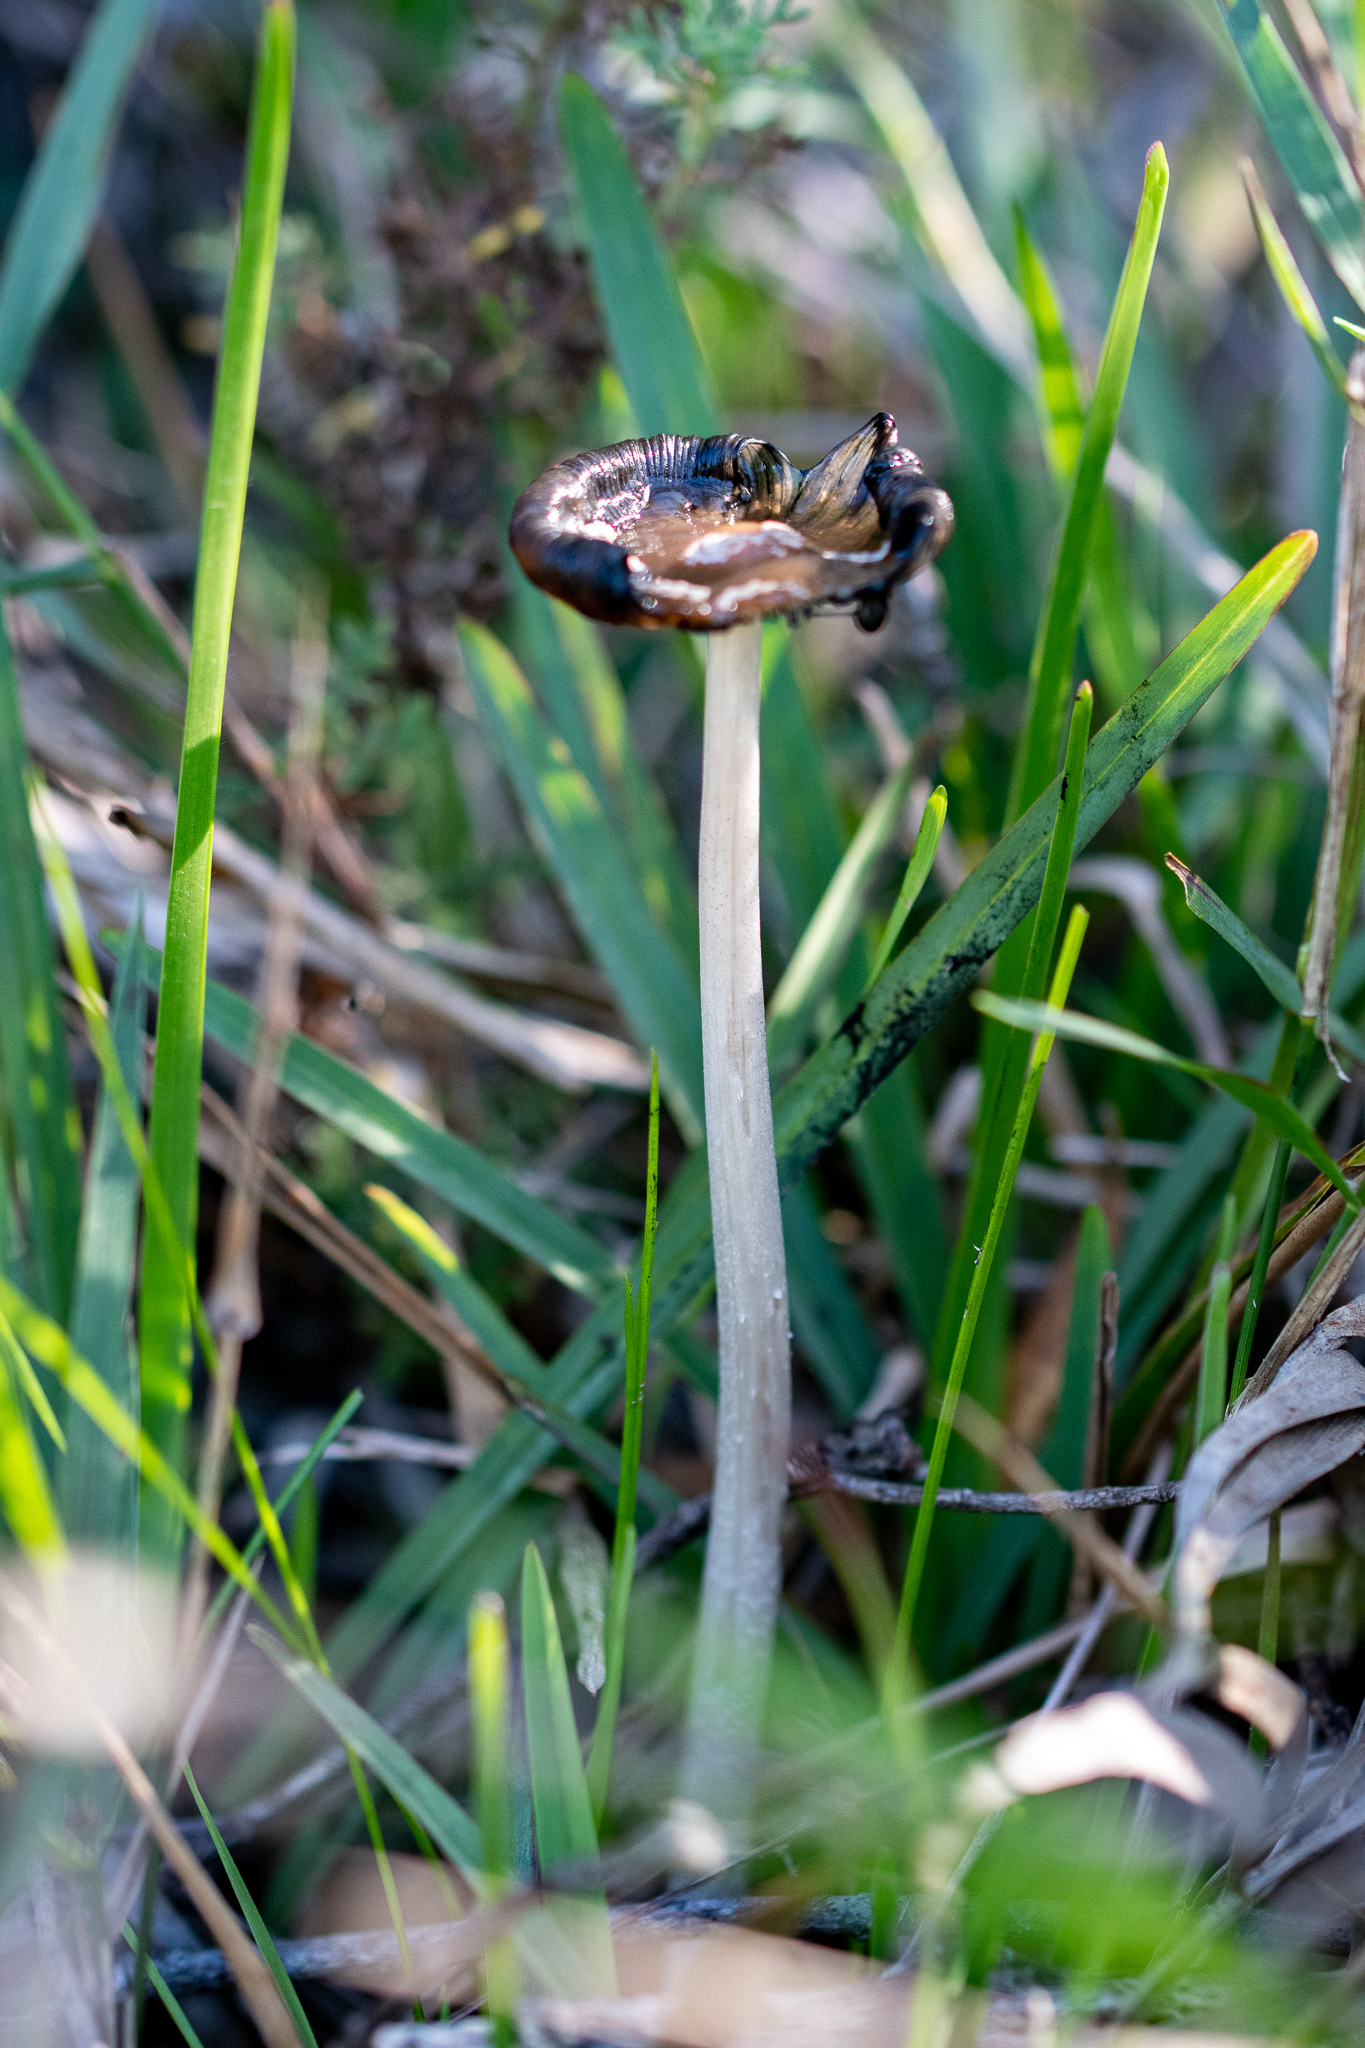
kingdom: Fungi
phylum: Basidiomycota
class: Agaricomycetes
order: Agaricales
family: Psathyrellaceae
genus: Coprinopsis
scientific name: Coprinopsis picacea
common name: Magpie inkcap
